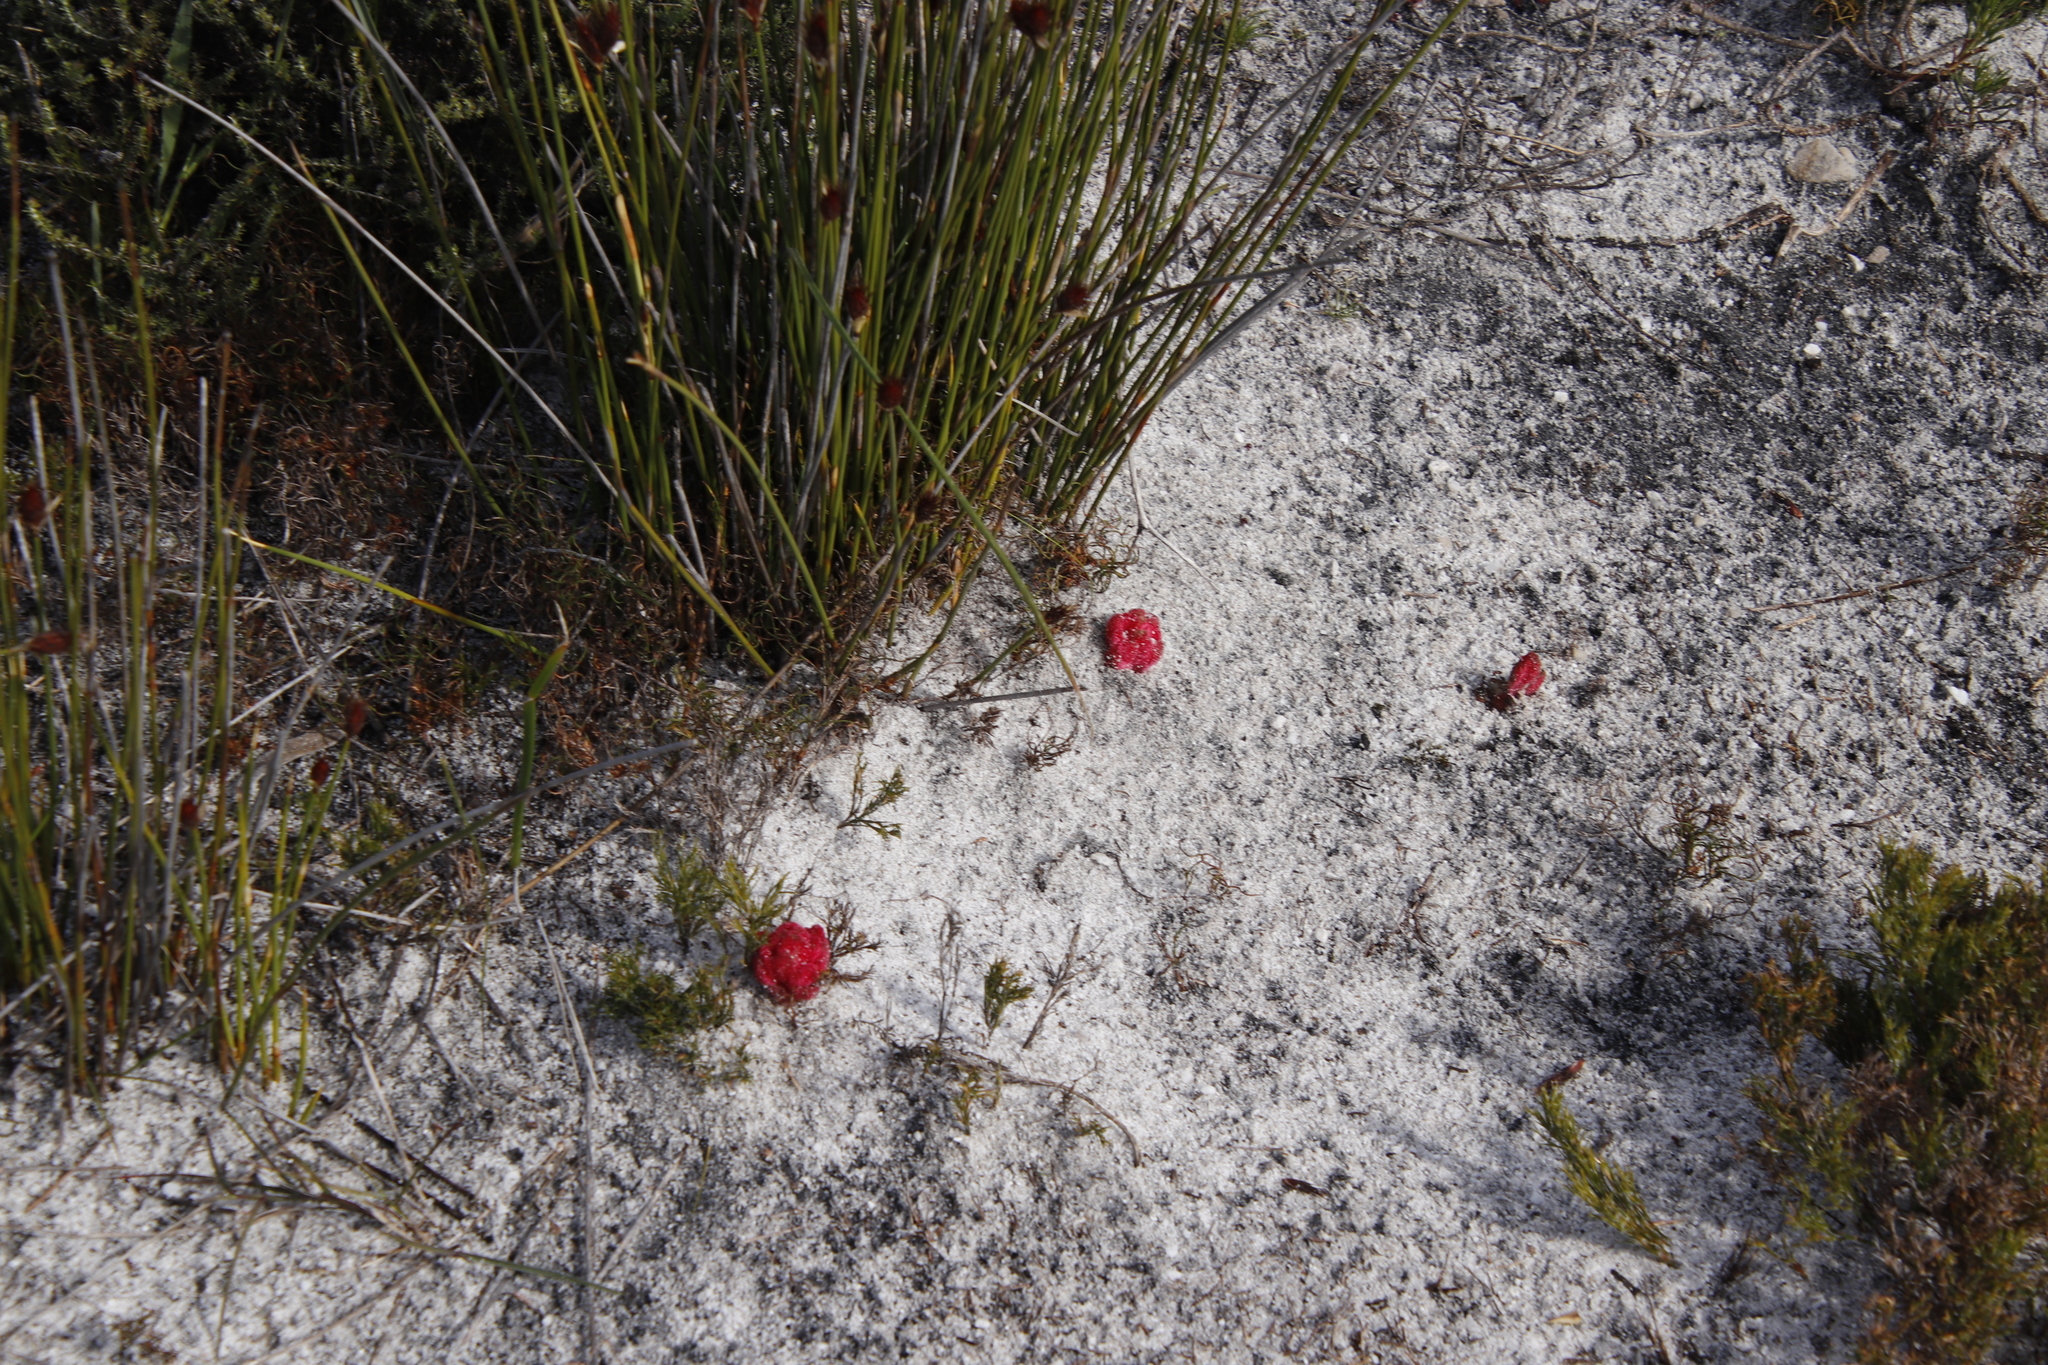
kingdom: Plantae
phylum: Tracheophyta
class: Magnoliopsida
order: Lamiales
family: Orobanchaceae
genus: Hyobanche
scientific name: Hyobanche sanguinea
